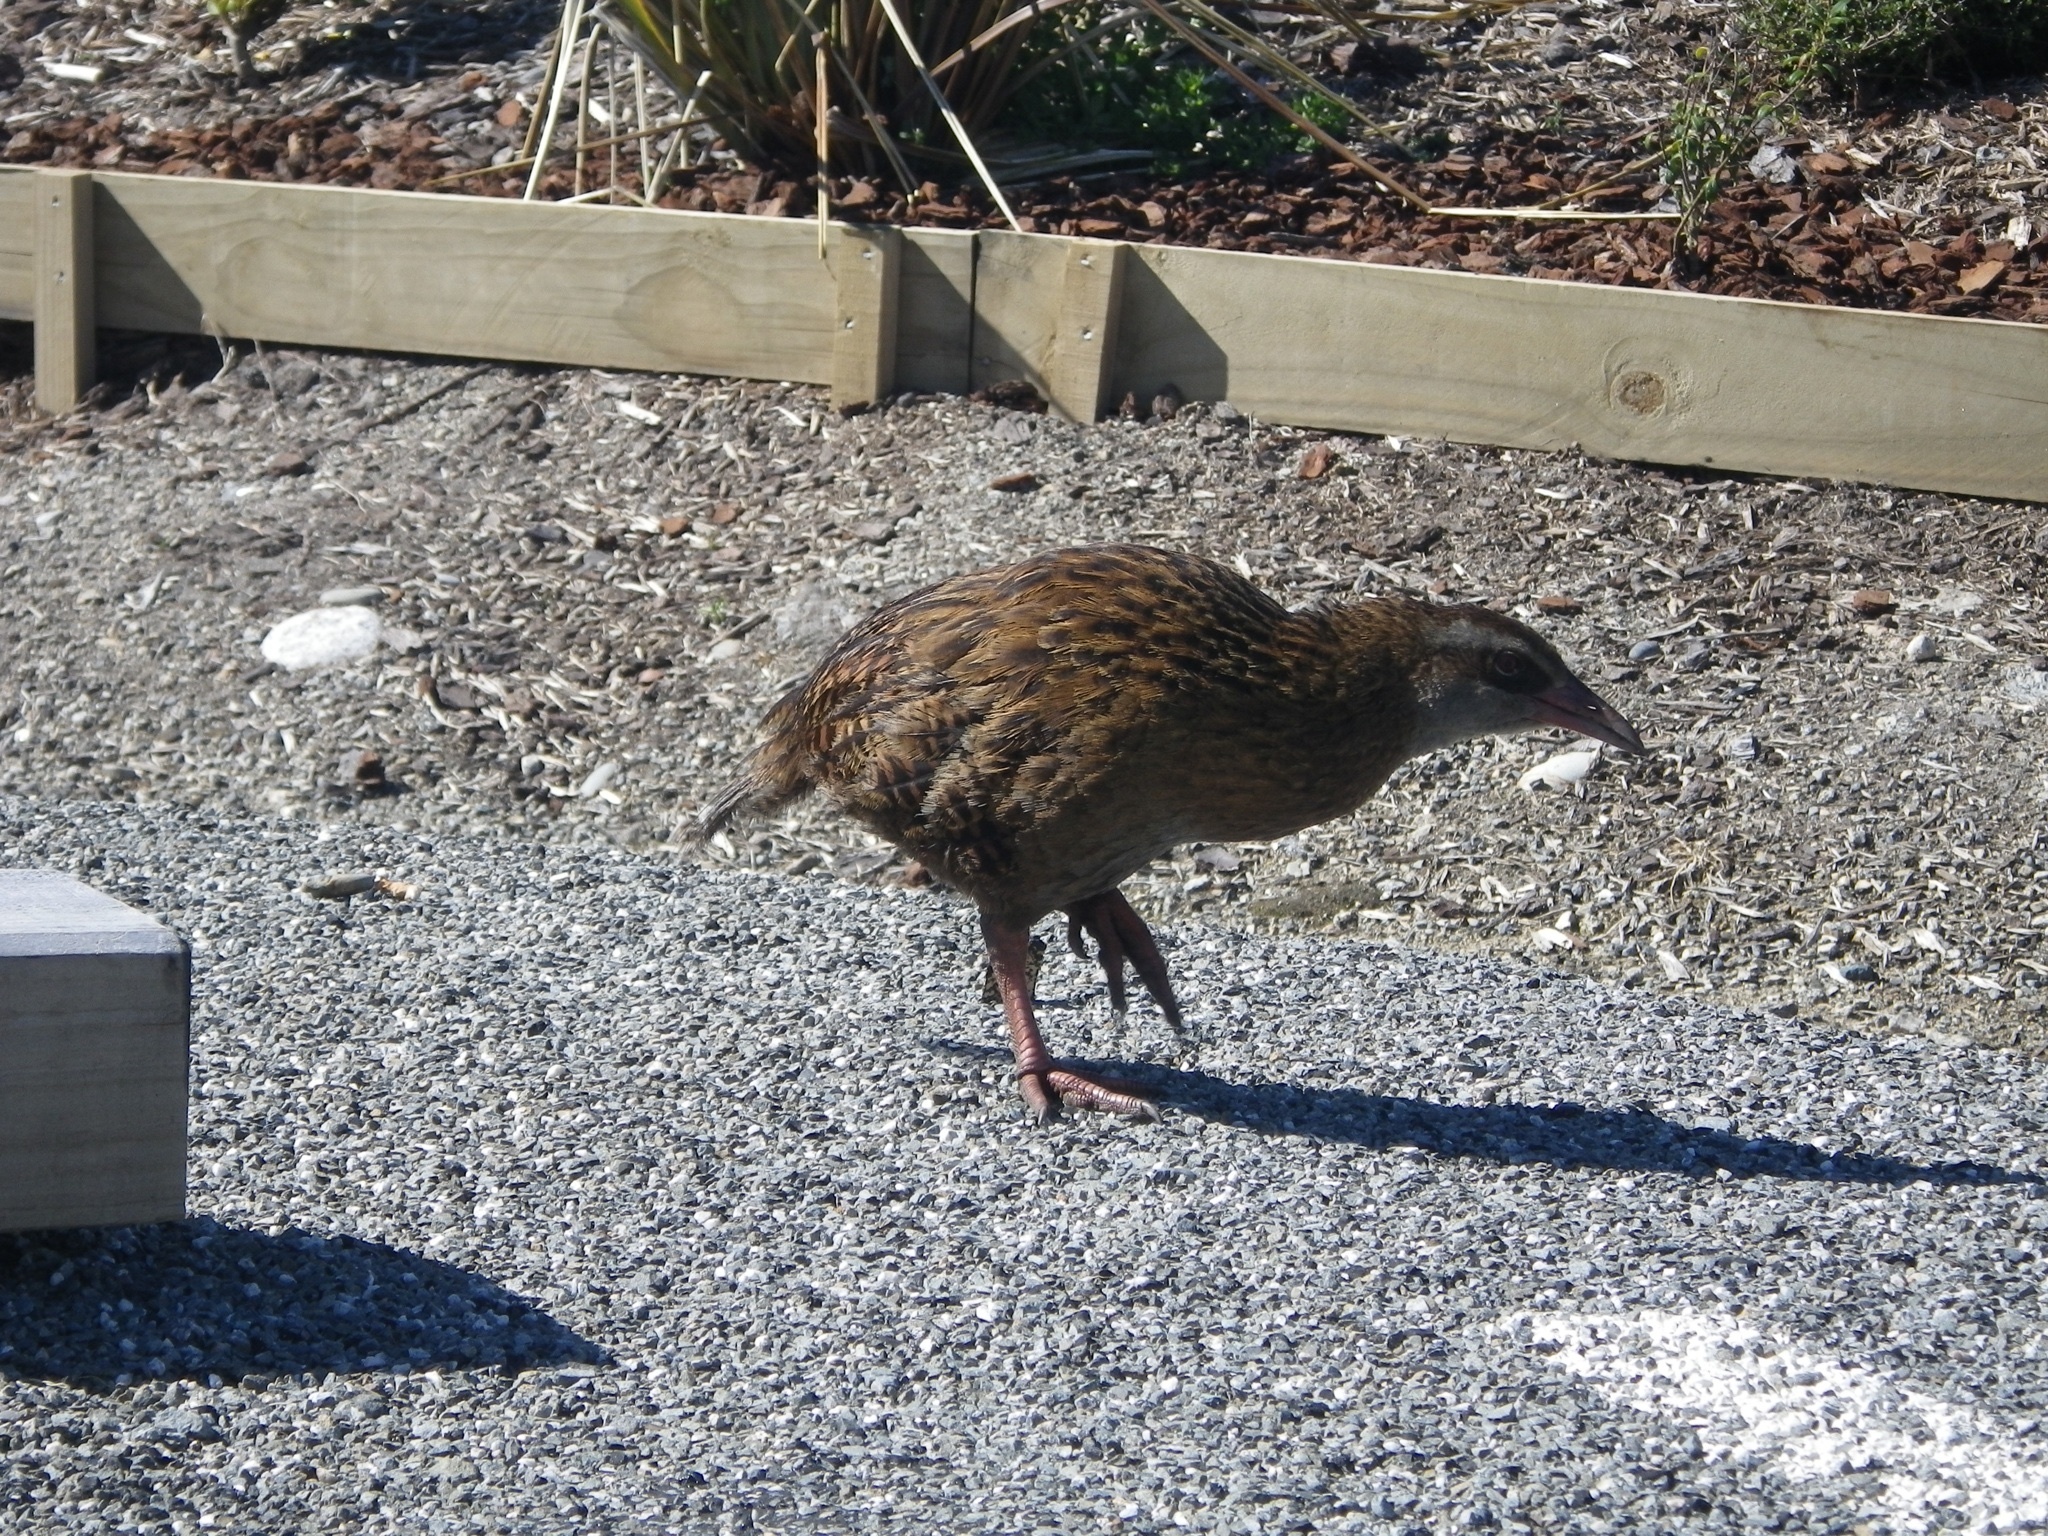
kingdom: Animalia
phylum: Chordata
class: Aves
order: Gruiformes
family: Rallidae
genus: Gallirallus
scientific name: Gallirallus australis
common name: Weka
